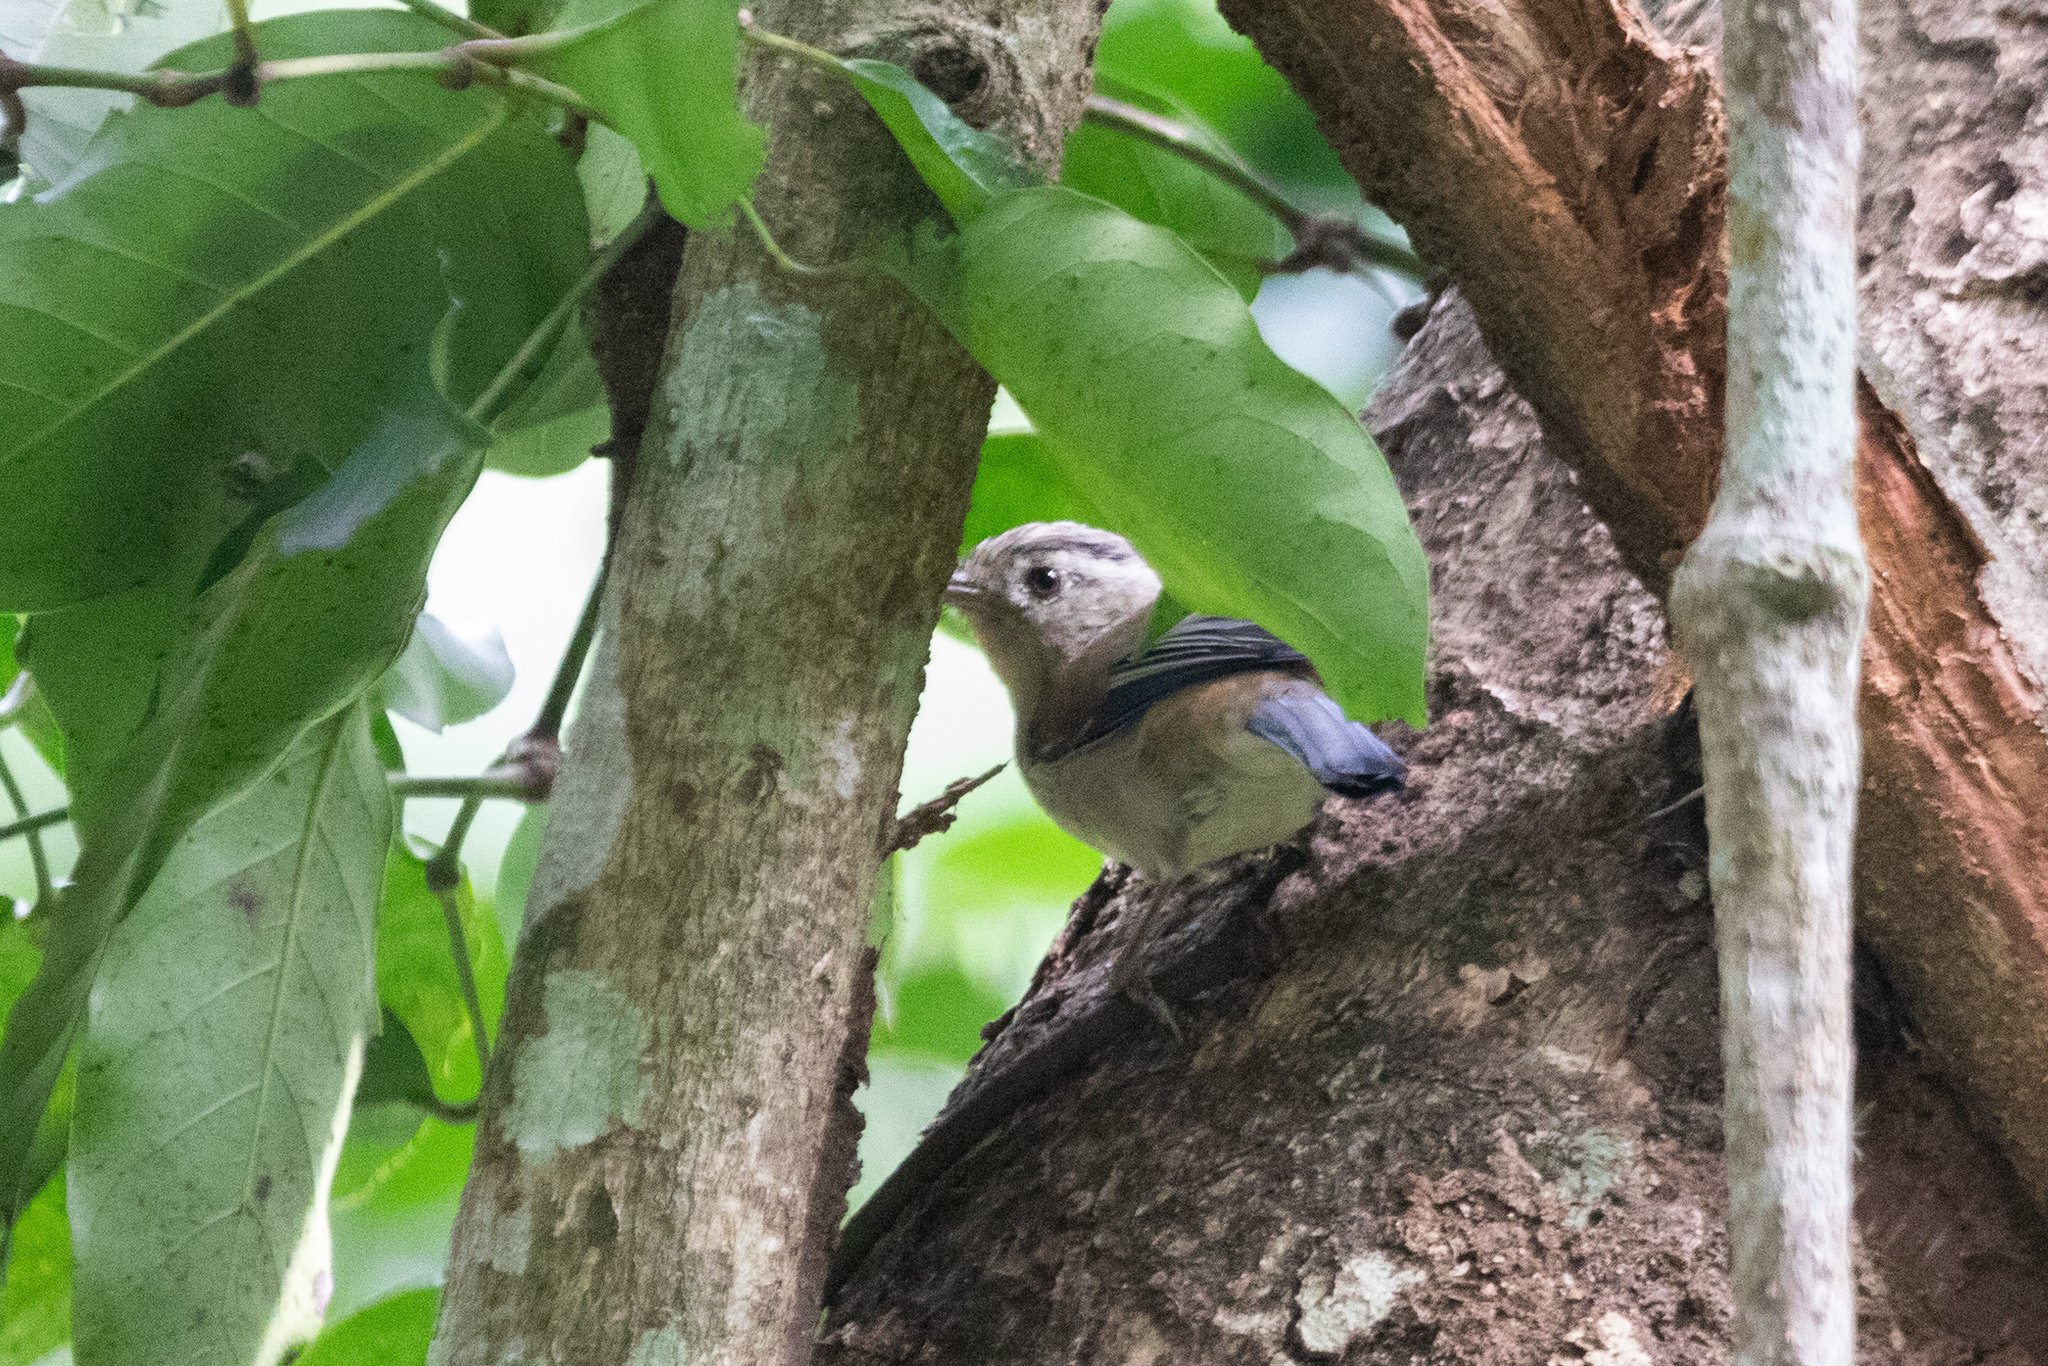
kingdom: Animalia
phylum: Chordata
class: Aves
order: Passeriformes
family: Leiothrichidae
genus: Minla
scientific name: Minla cyanouroptera
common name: Blue-winged minla
